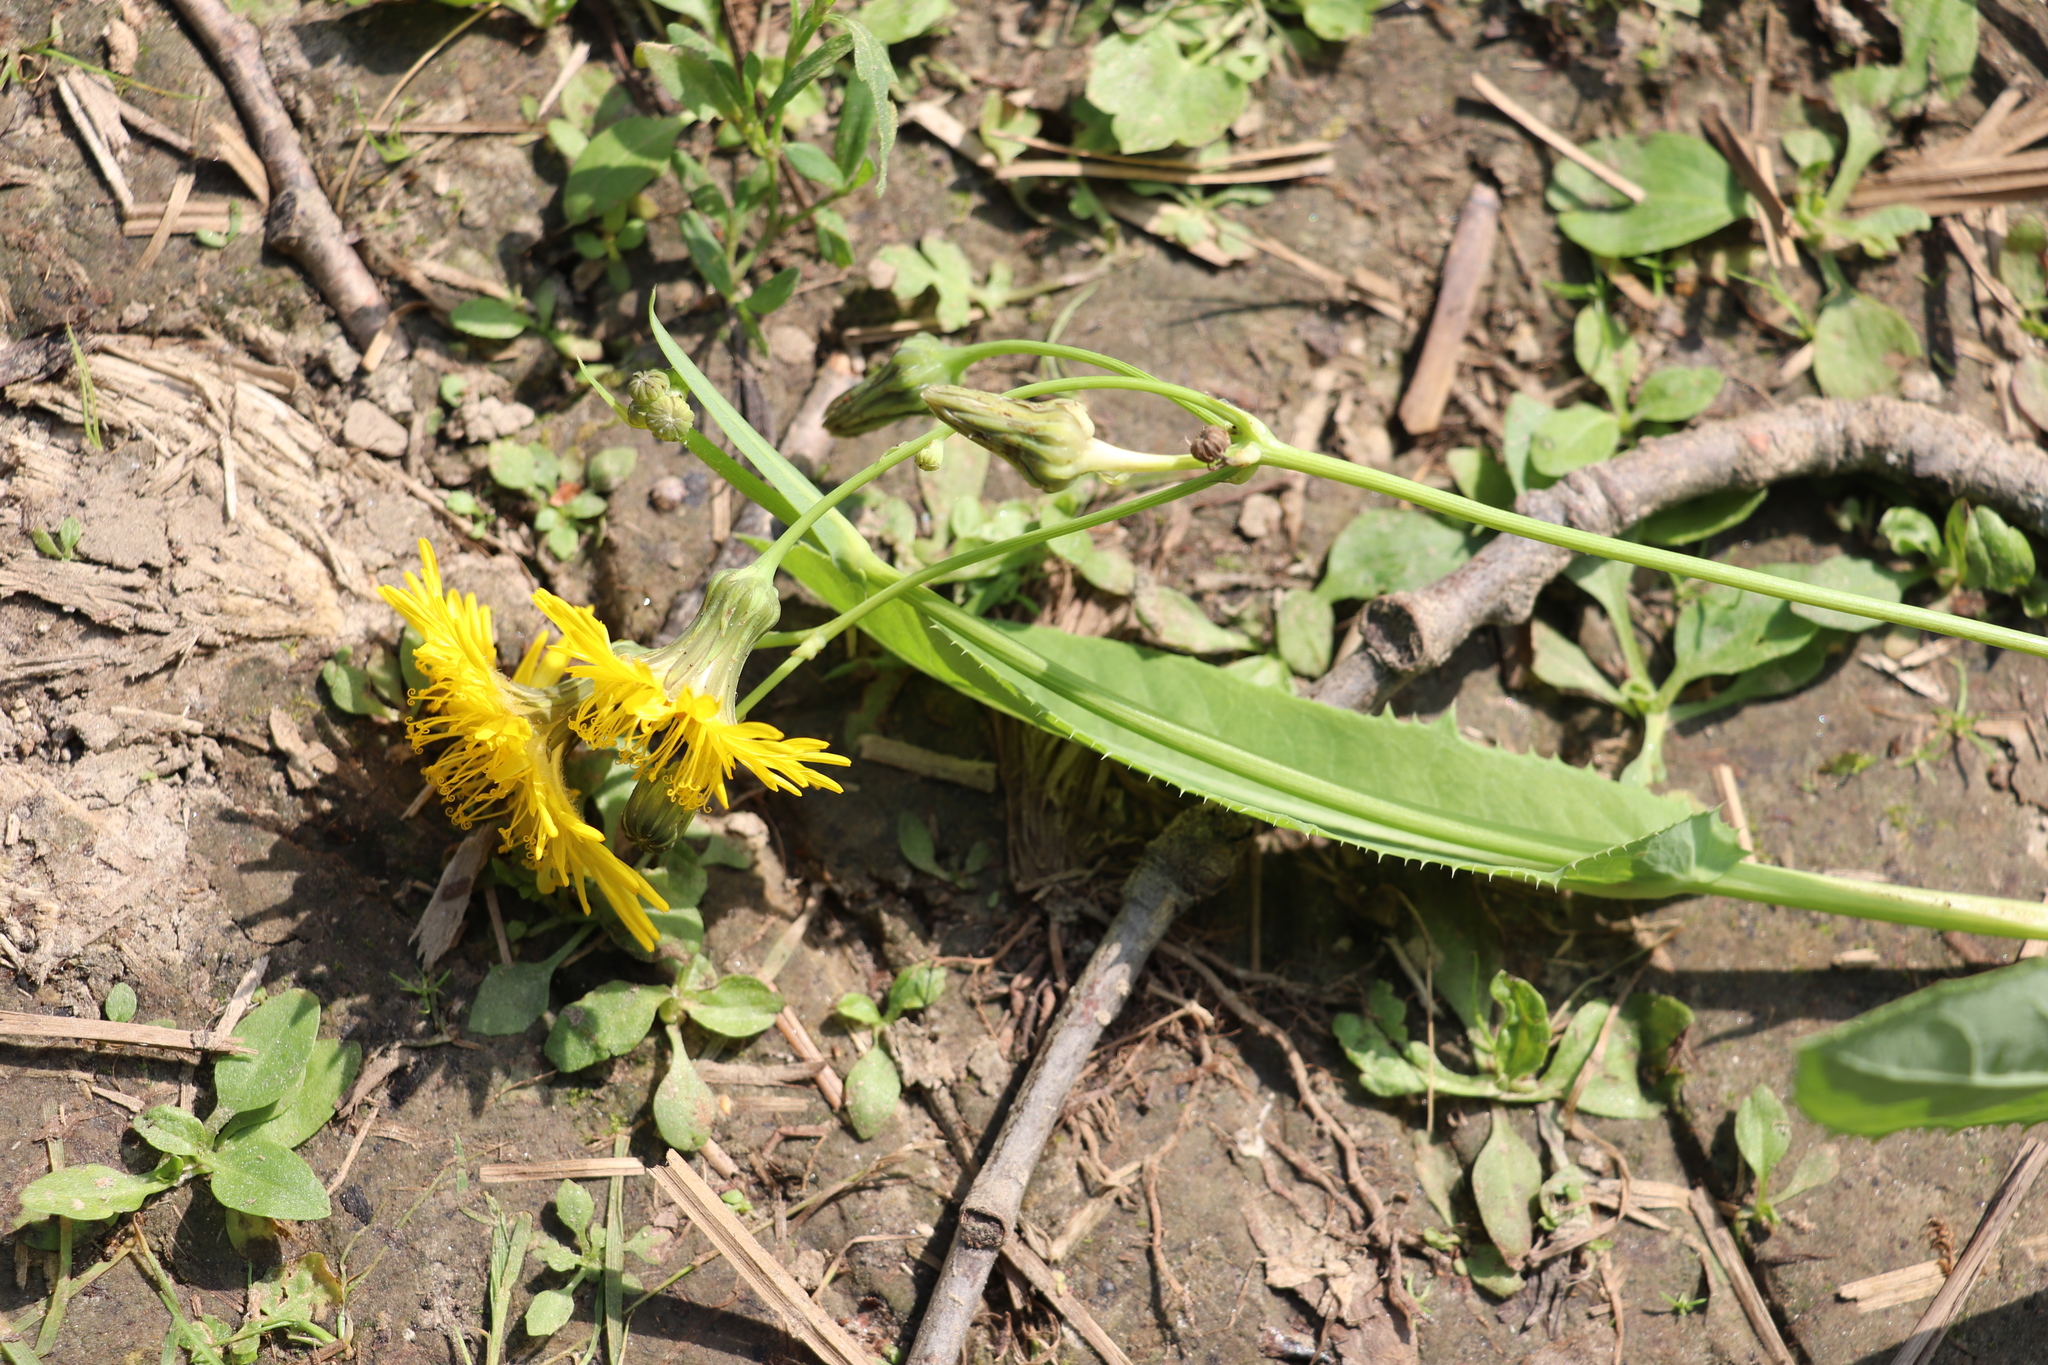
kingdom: Plantae
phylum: Tracheophyta
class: Magnoliopsida
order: Asterales
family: Asteraceae
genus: Sonchus
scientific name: Sonchus arvensis
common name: Perennial sow-thistle
